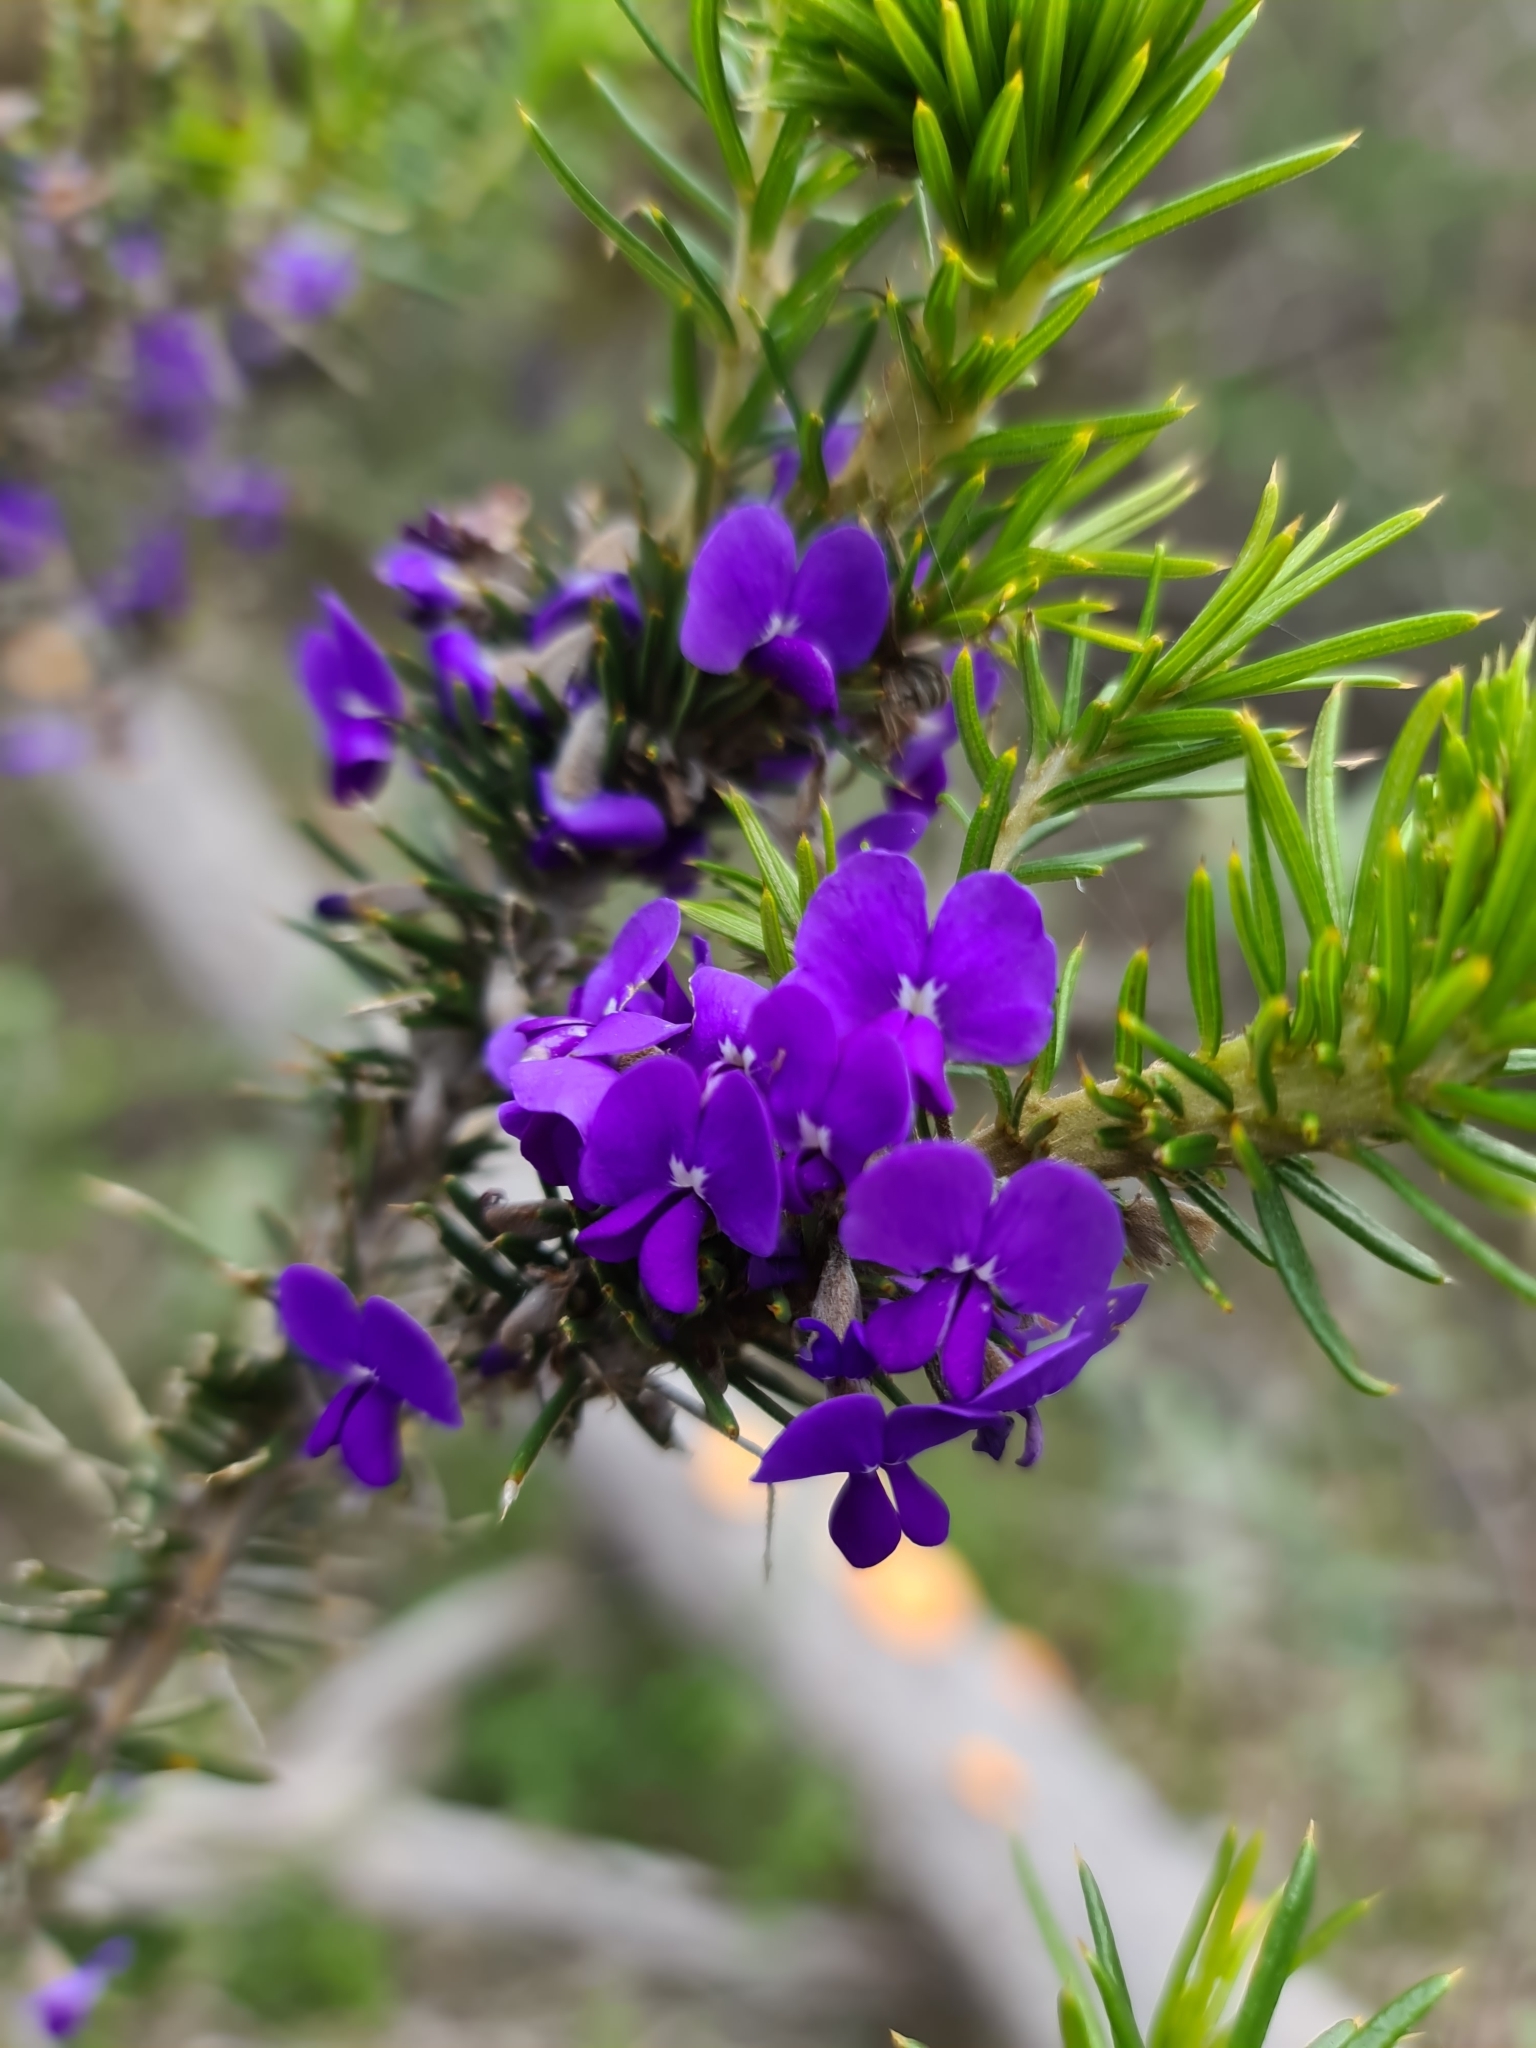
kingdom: Plantae
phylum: Tracheophyta
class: Magnoliopsida
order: Fabales
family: Fabaceae
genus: Hovea
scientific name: Hovea pungens
